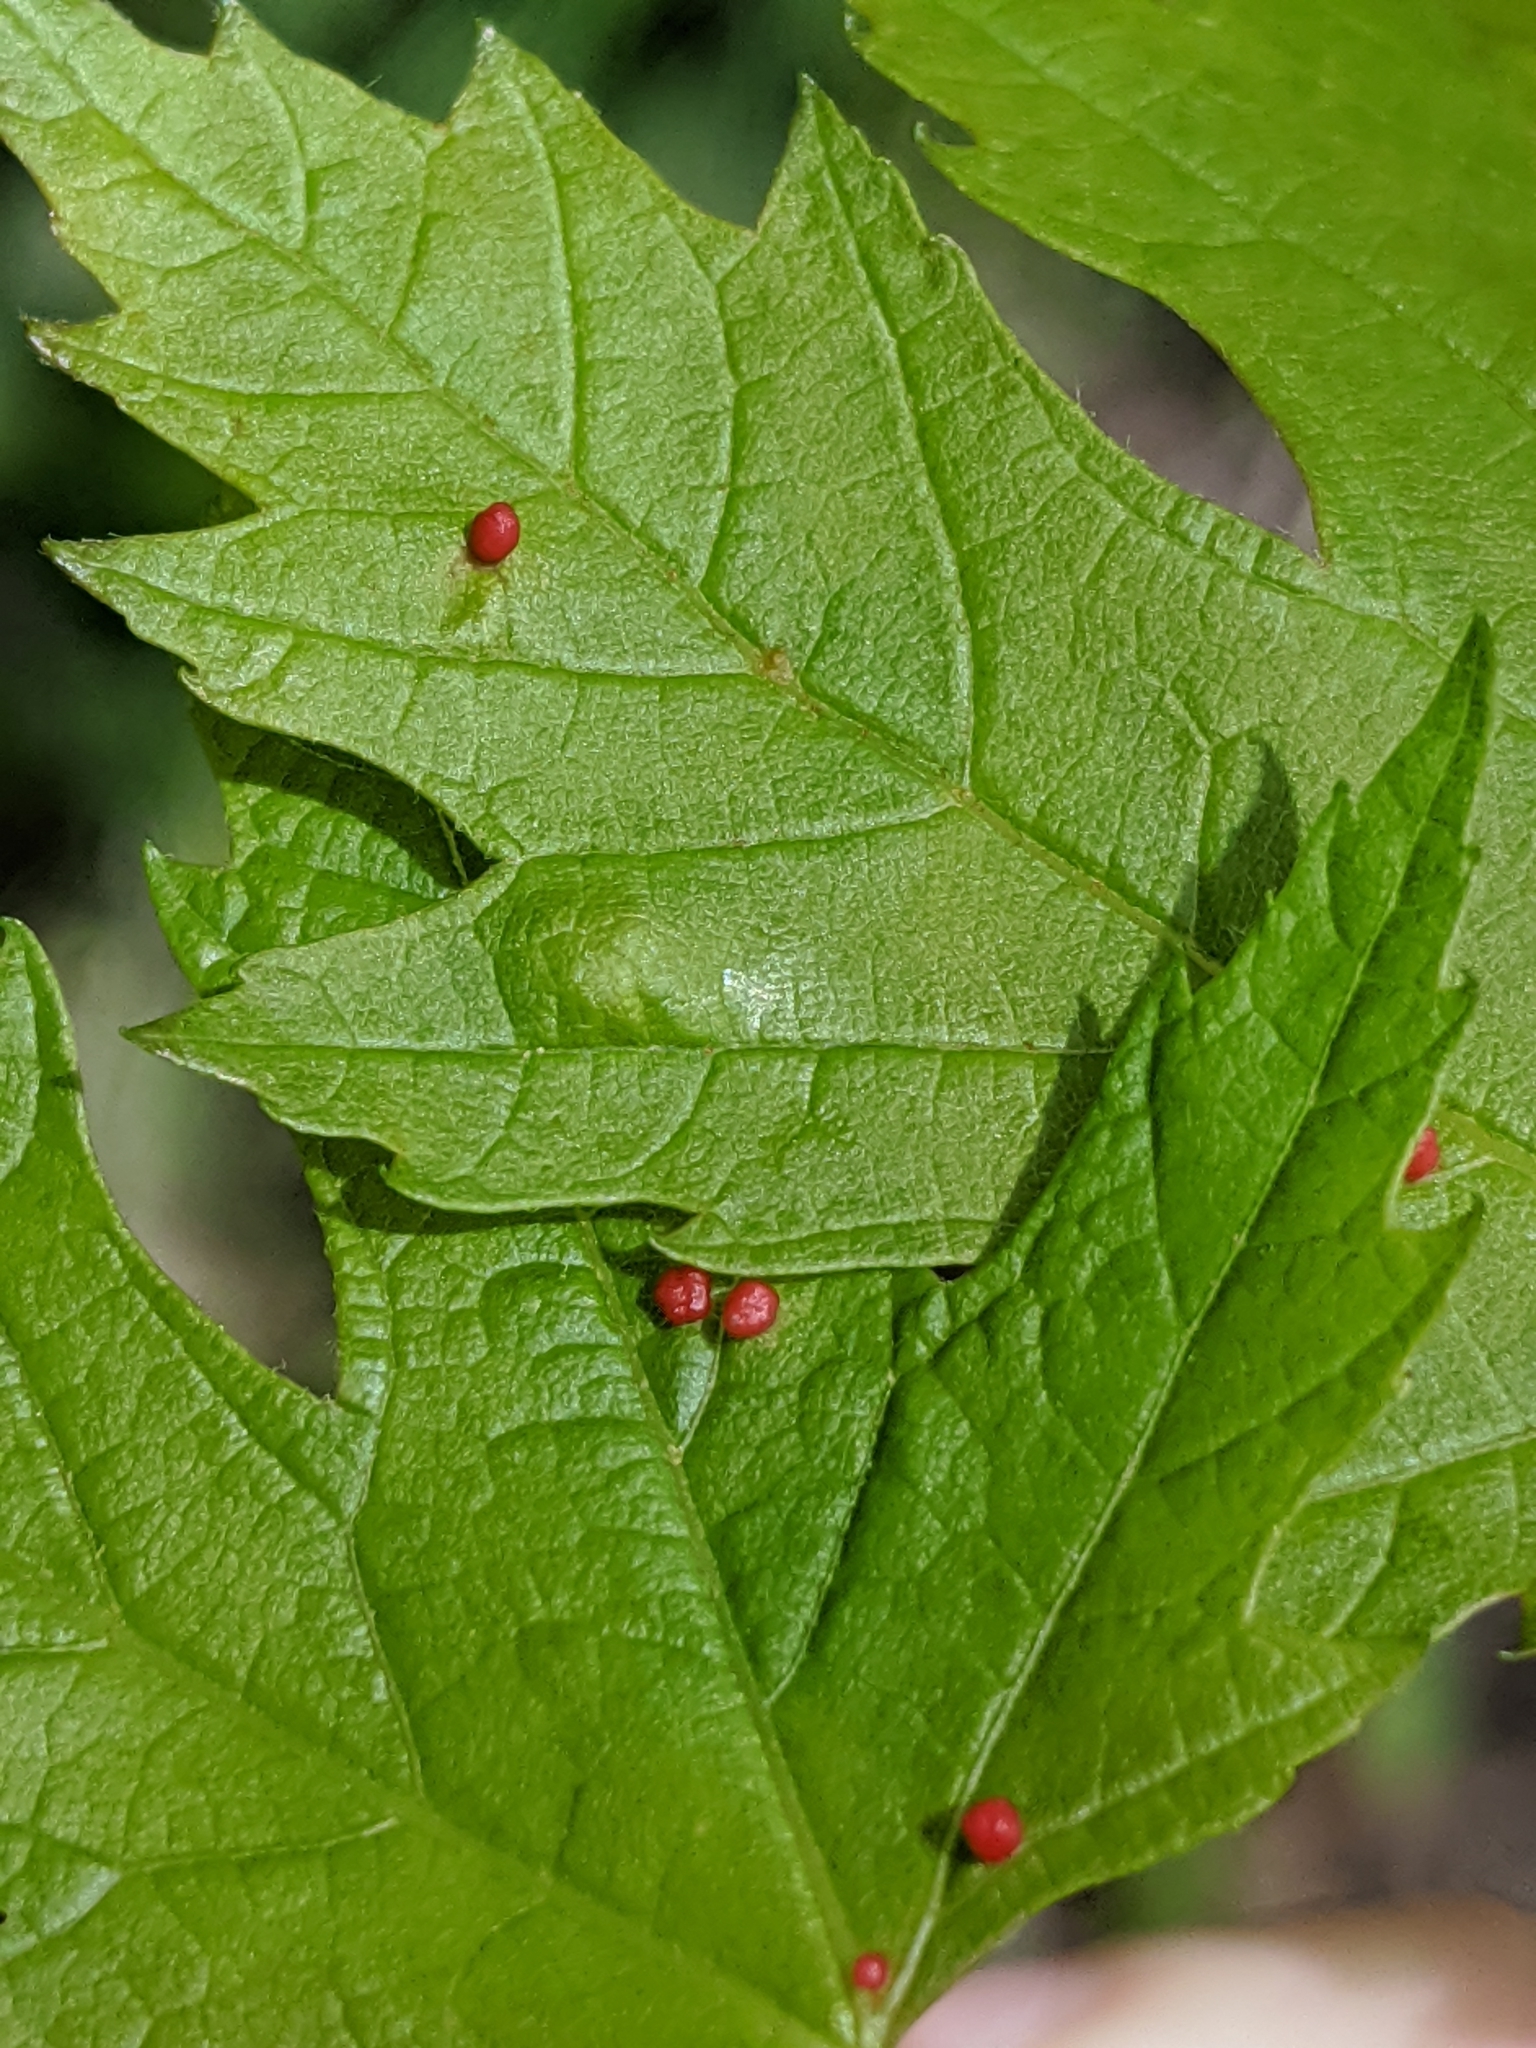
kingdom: Animalia
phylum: Arthropoda
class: Arachnida
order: Trombidiformes
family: Eriophyidae
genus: Vasates
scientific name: Vasates quadripedes
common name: Maple bladder gall mite
